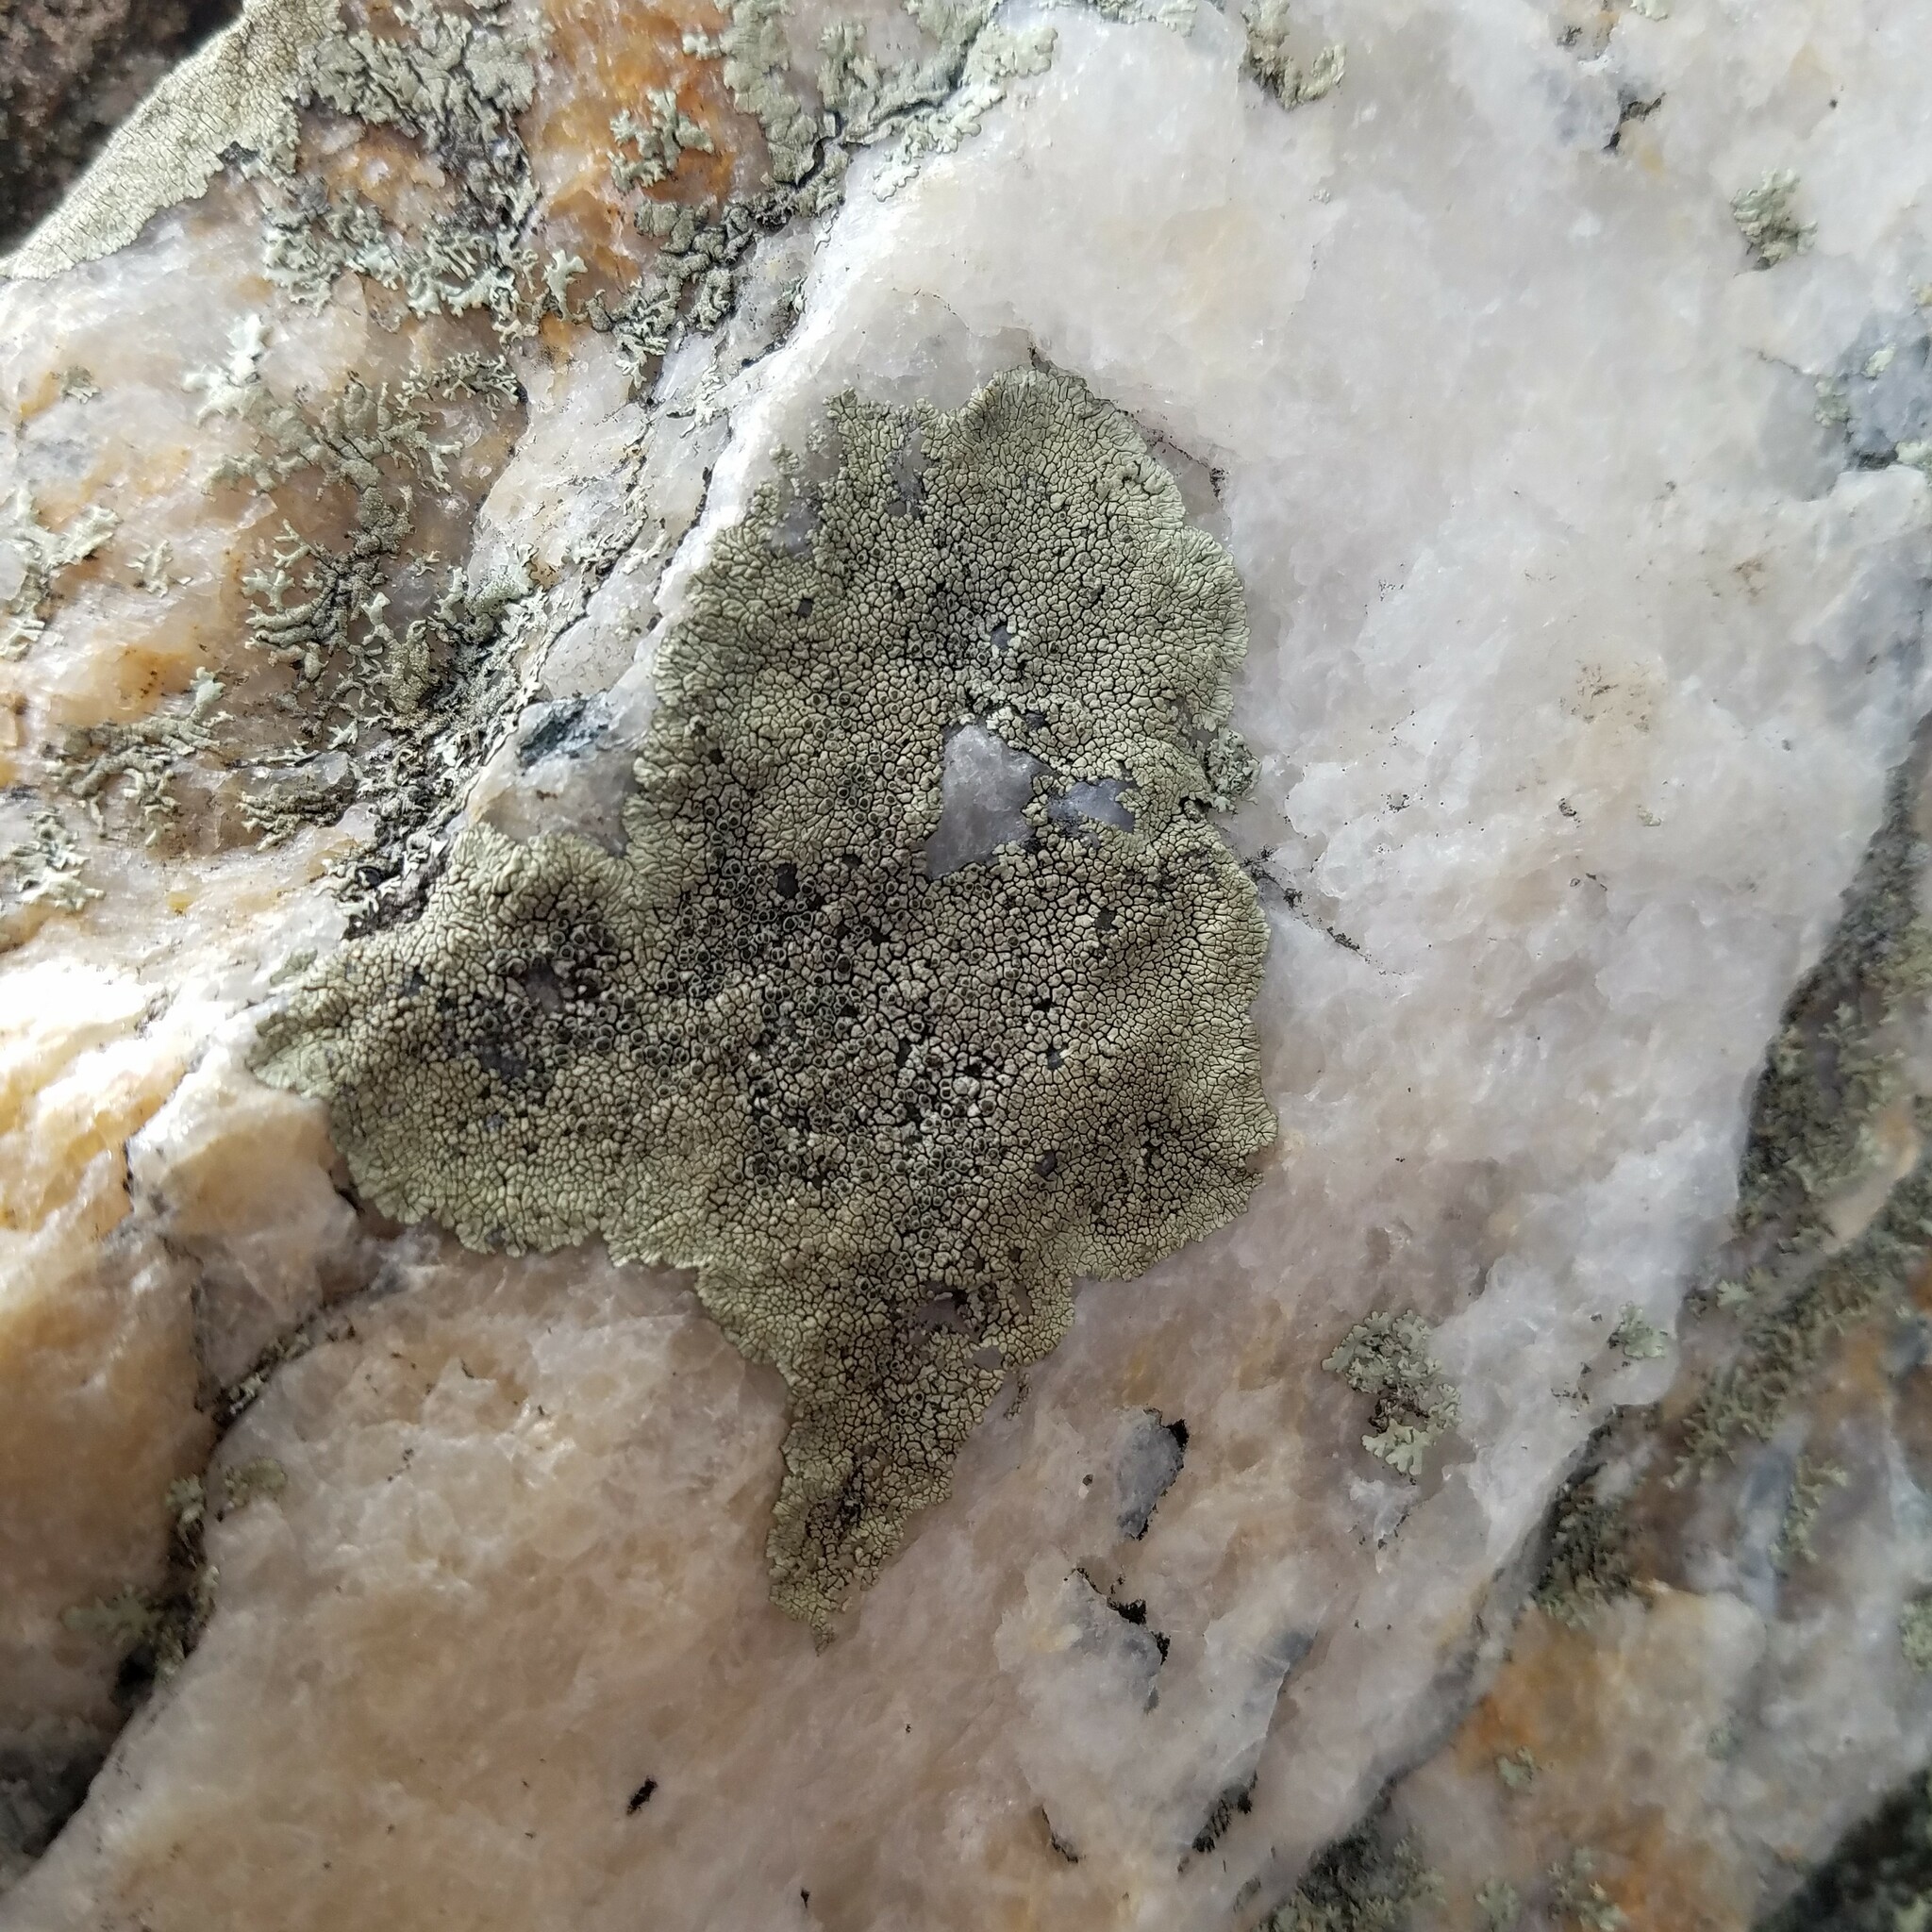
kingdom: Fungi
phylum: Ascomycota
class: Lecanoromycetes
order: Caliciales
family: Caliciaceae
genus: Dimelaena
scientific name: Dimelaena oreina
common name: Golden moonglow lichen
